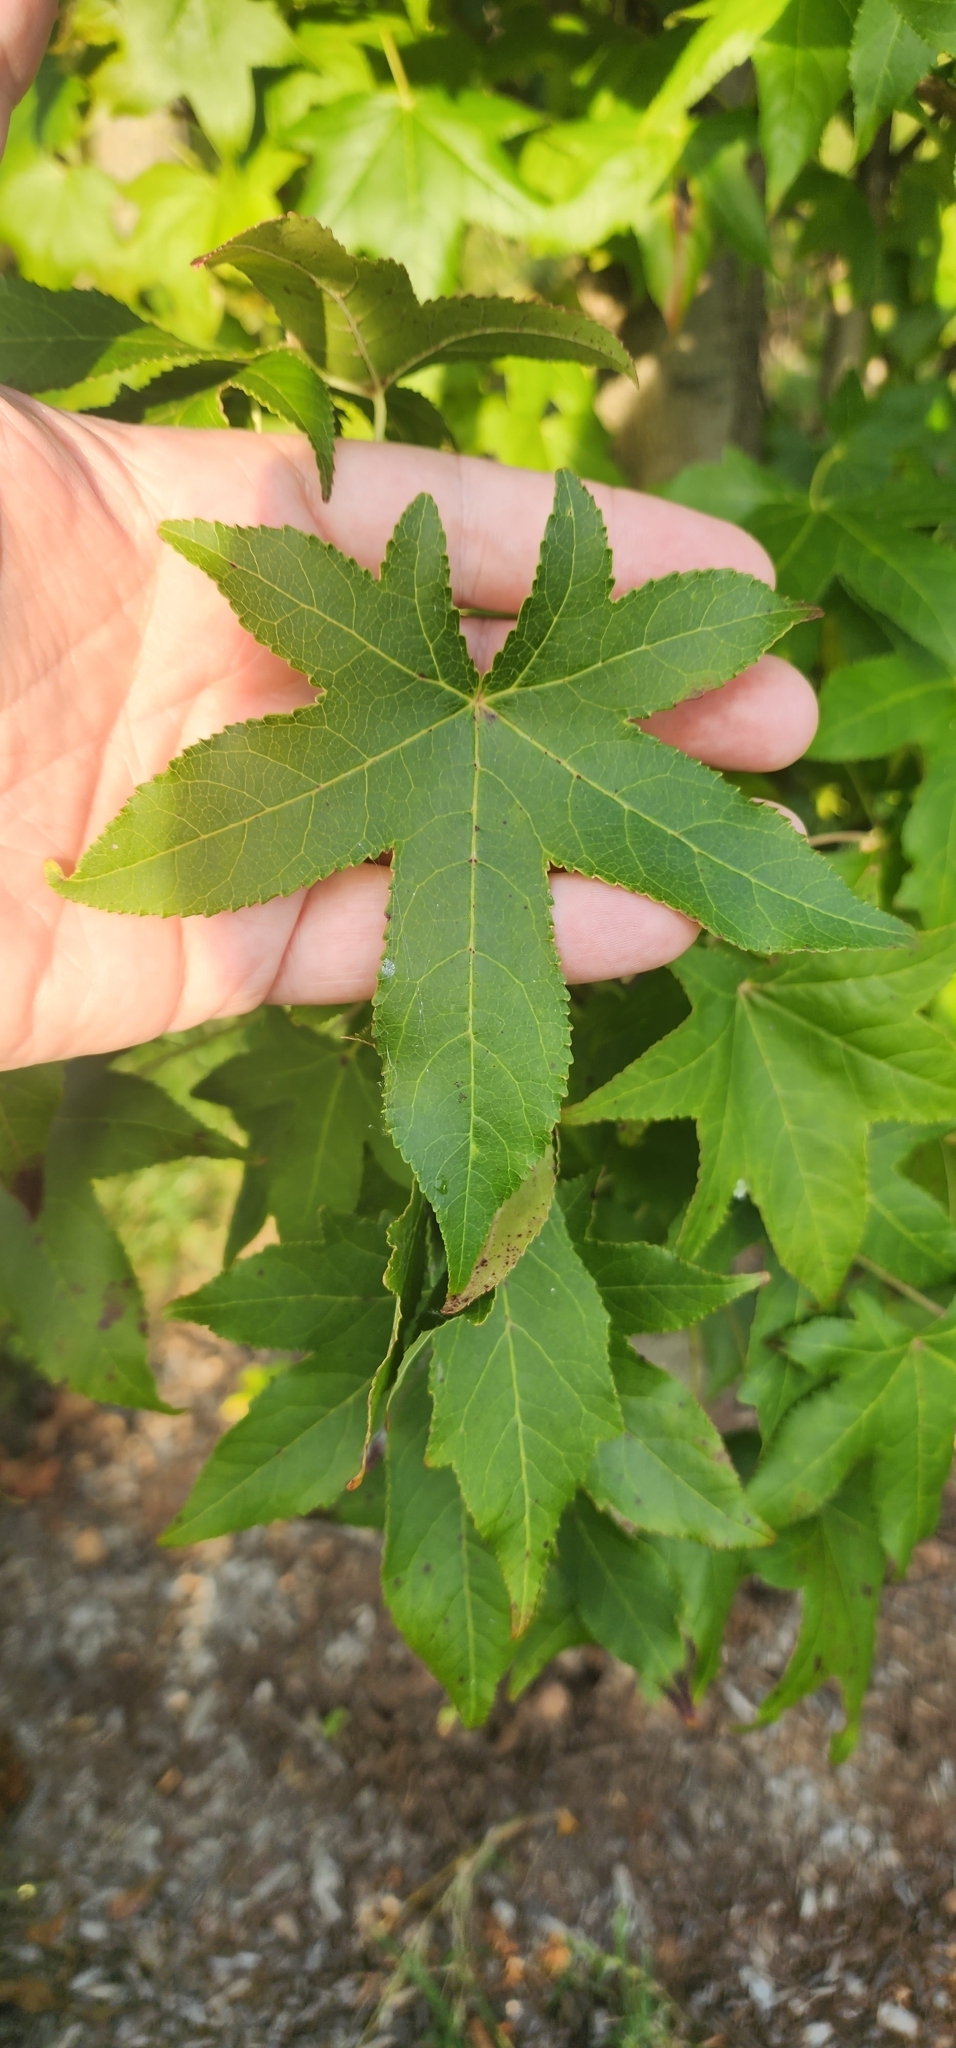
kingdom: Plantae
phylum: Tracheophyta
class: Magnoliopsida
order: Saxifragales
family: Altingiaceae
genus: Liquidambar
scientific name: Liquidambar styraciflua
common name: Sweet gum
